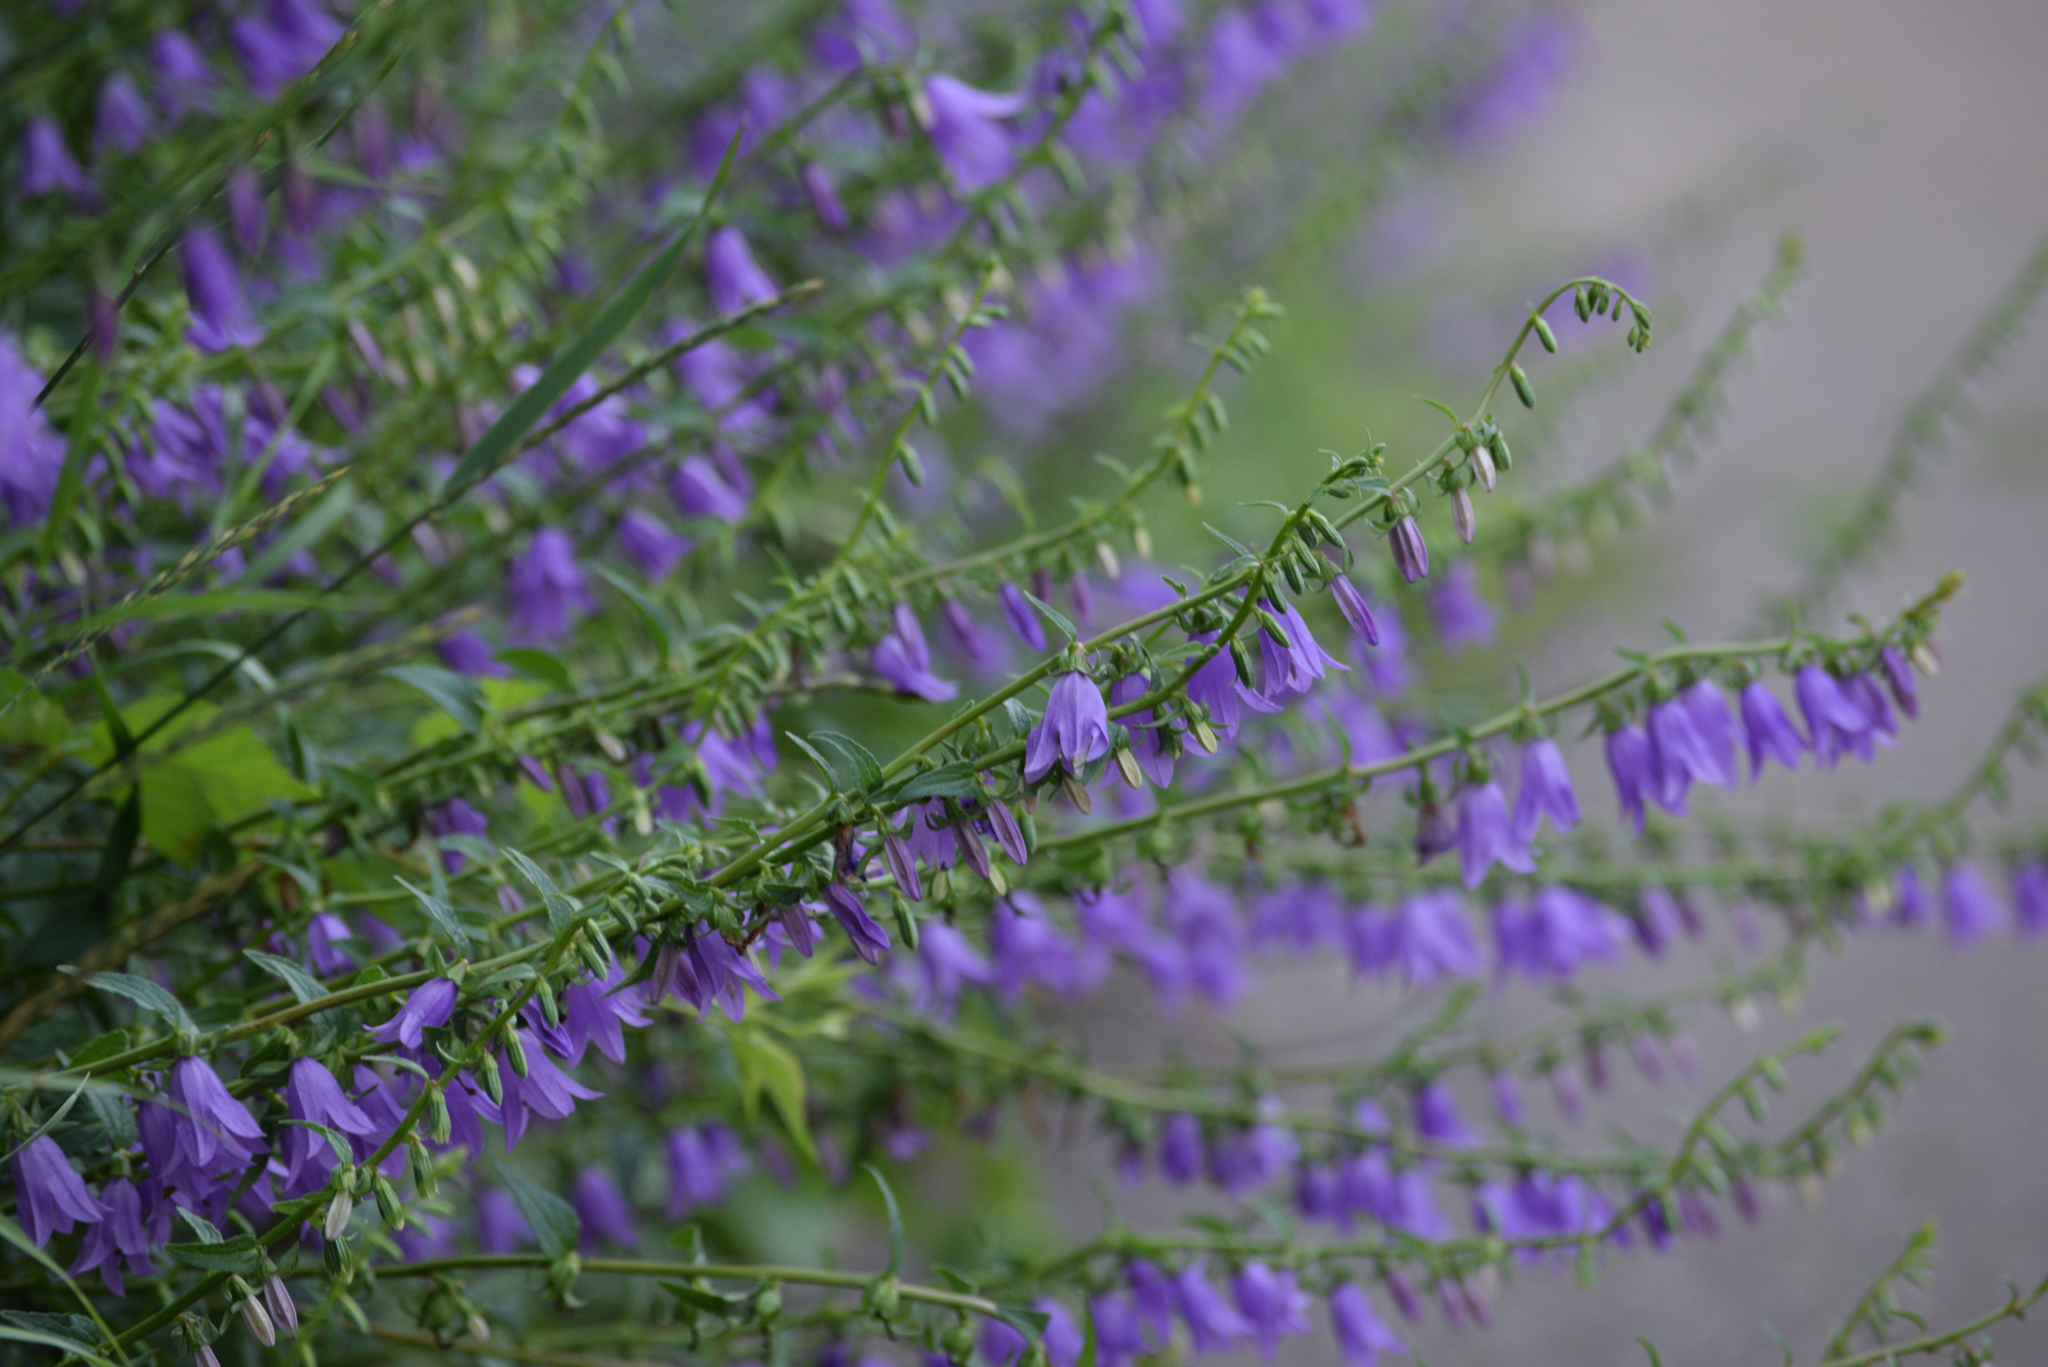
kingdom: Plantae
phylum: Tracheophyta
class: Magnoliopsida
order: Asterales
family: Campanulaceae
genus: Campanula
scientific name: Campanula rapunculoides
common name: Creeping bellflower
